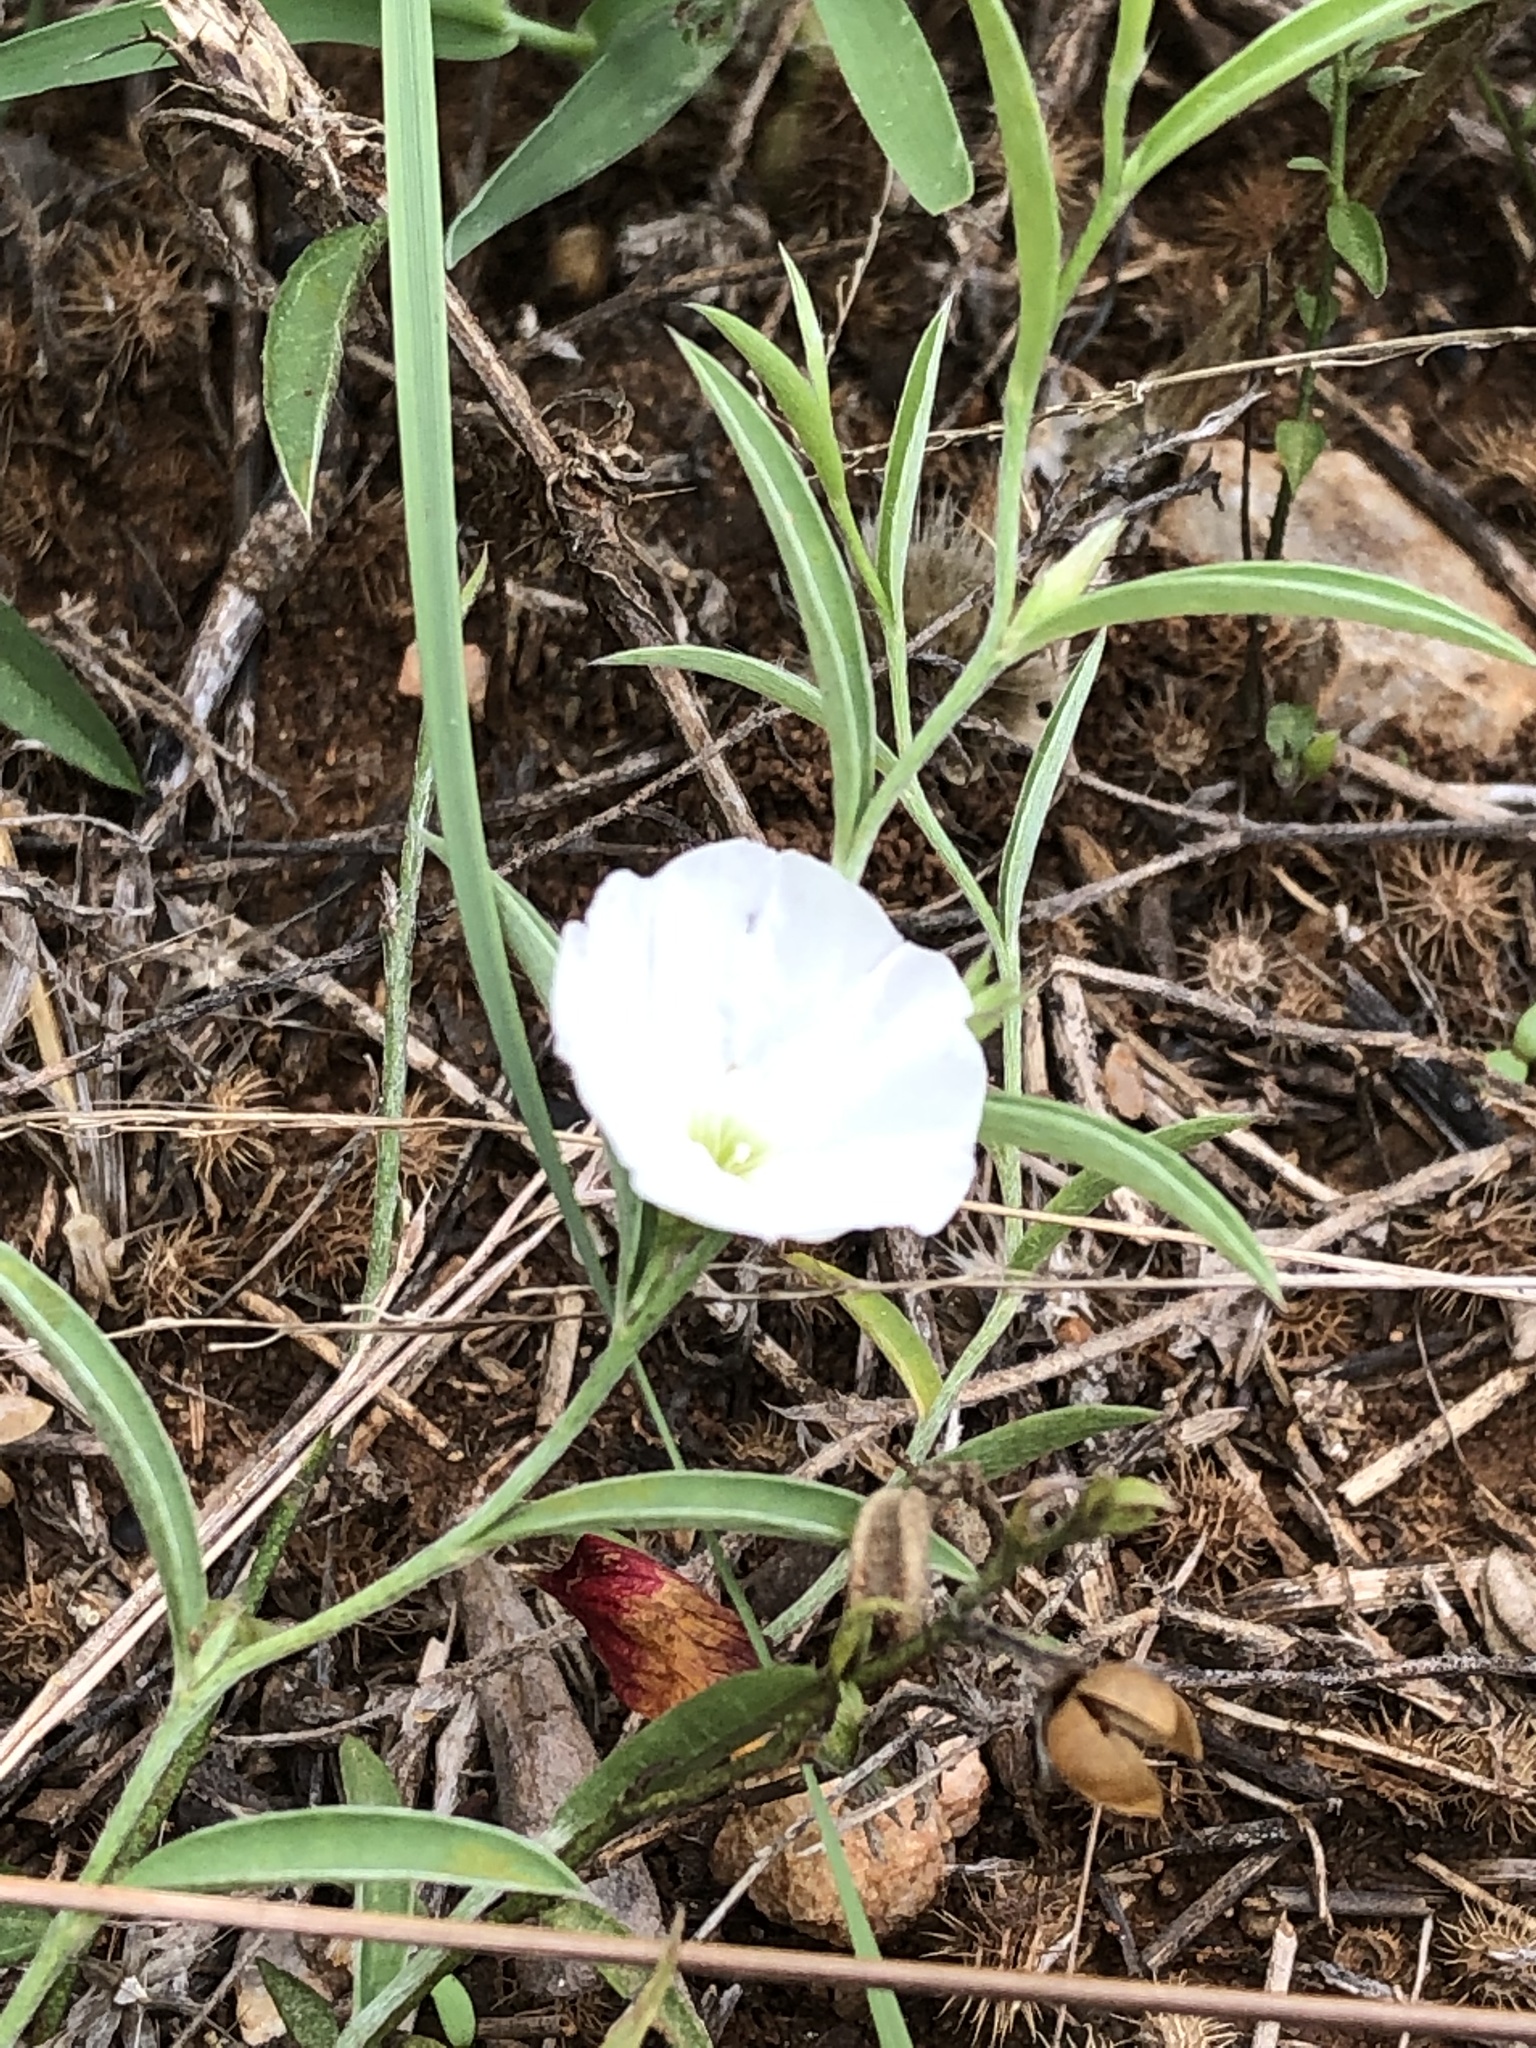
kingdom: Plantae
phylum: Tracheophyta
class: Magnoliopsida
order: Solanales
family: Convolvulaceae
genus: Evolvulus
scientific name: Evolvulus sericeus
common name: Blue dots
